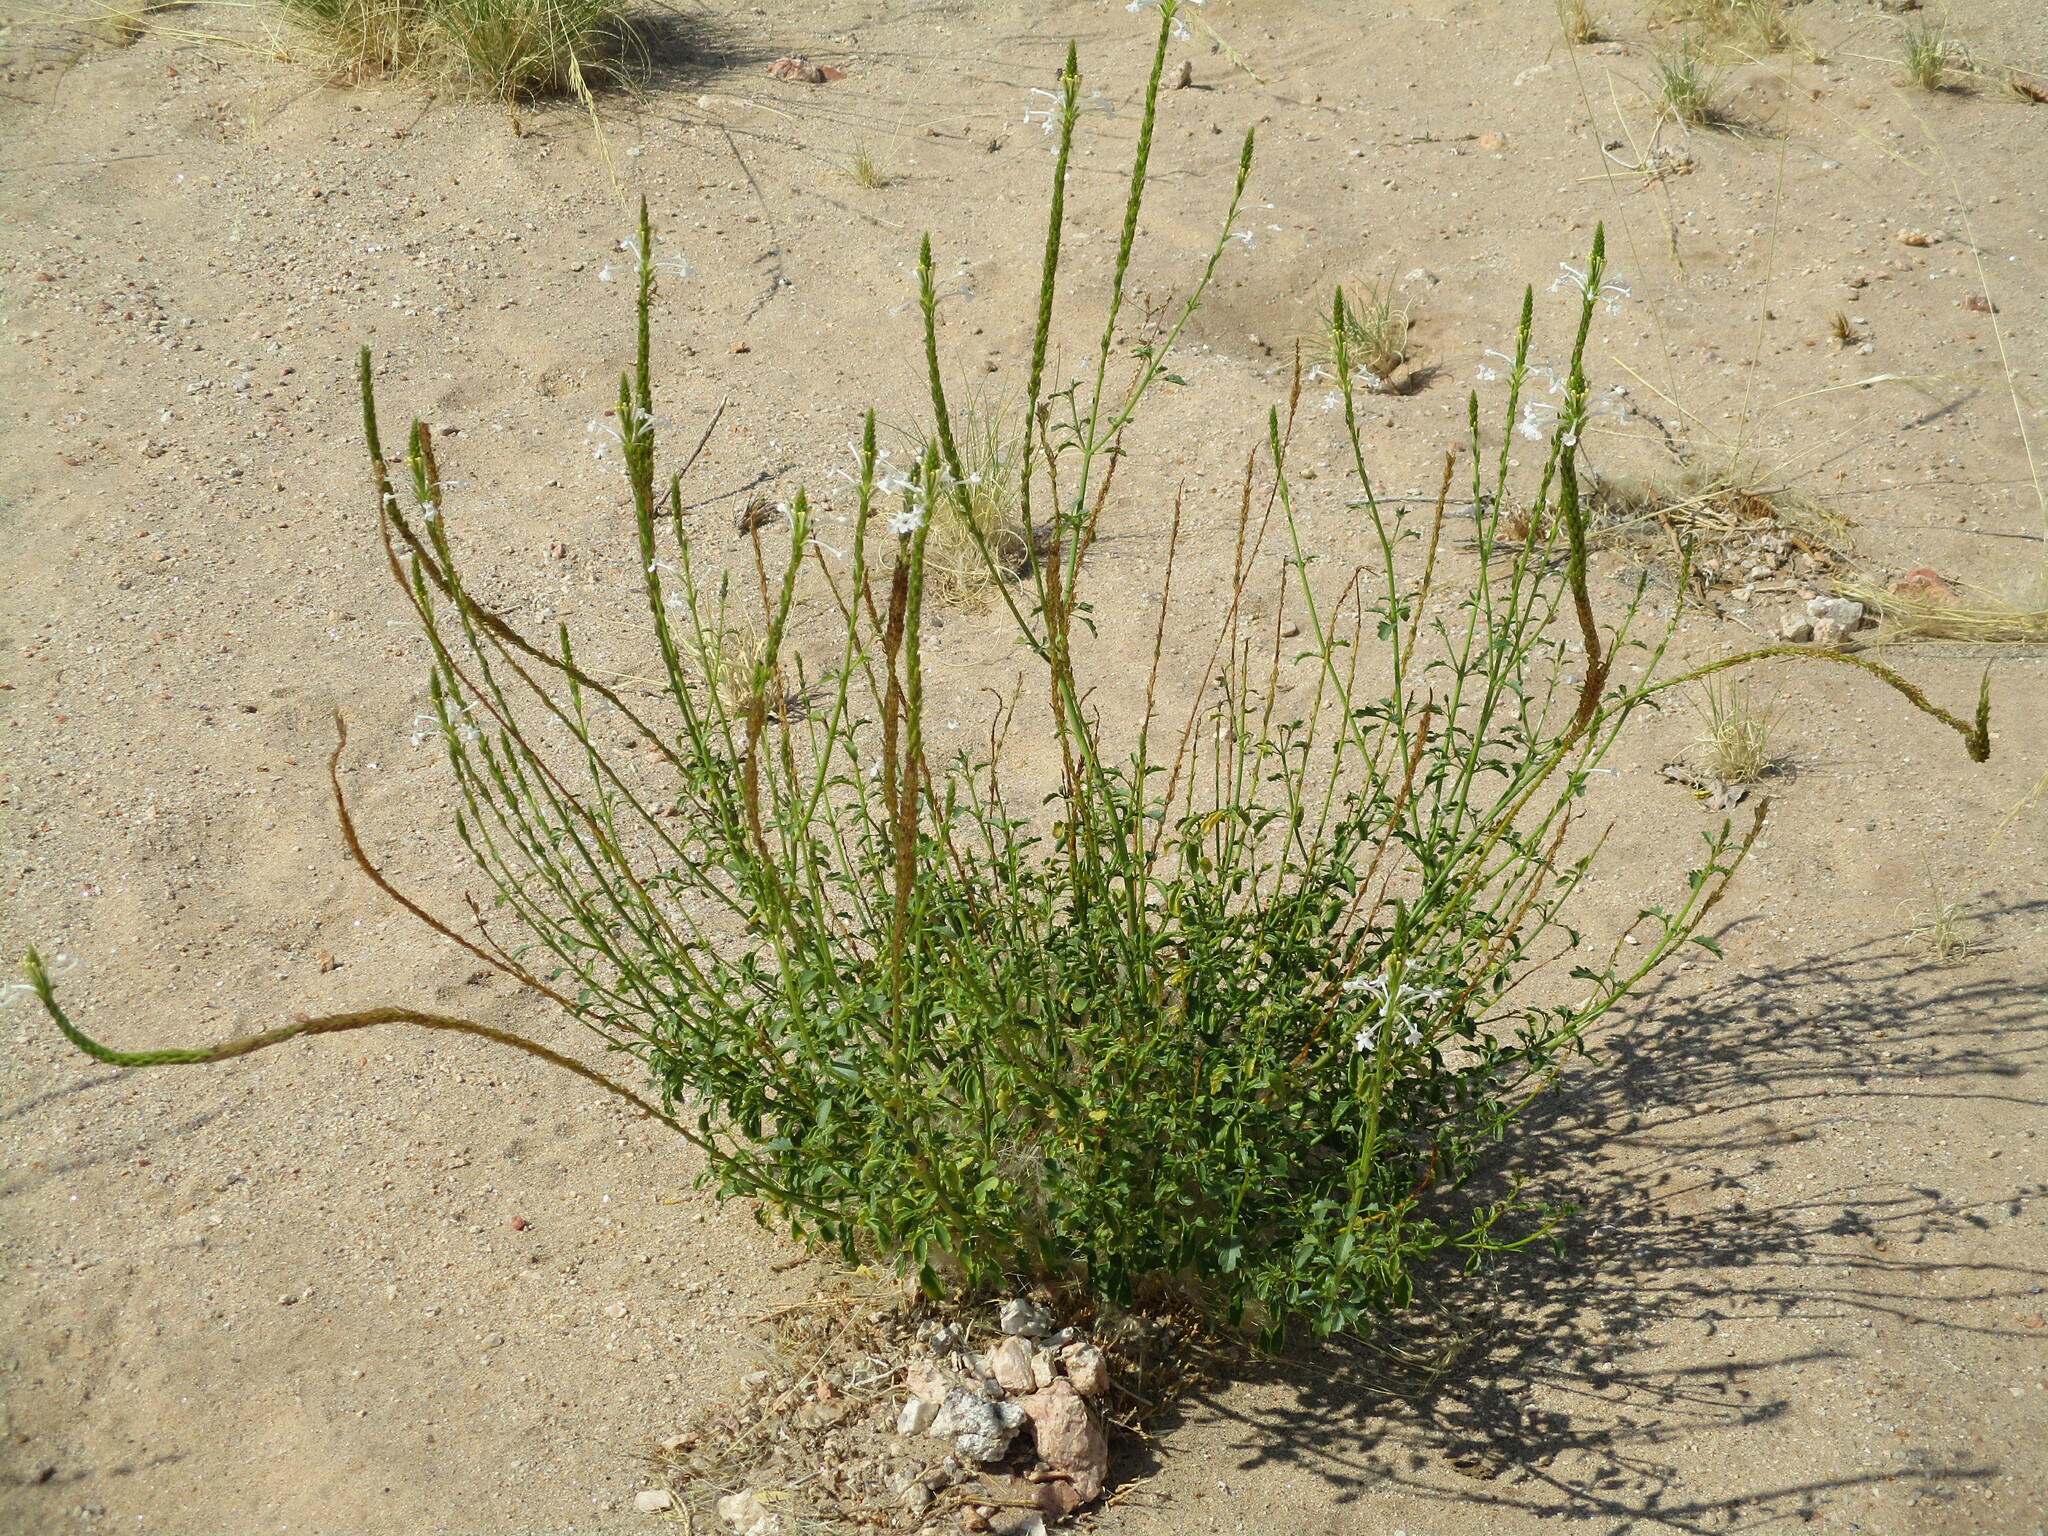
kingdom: Plantae
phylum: Tracheophyta
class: Magnoliopsida
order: Lamiales
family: Verbenaceae
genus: Chascanum
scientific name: Chascanum garipense
